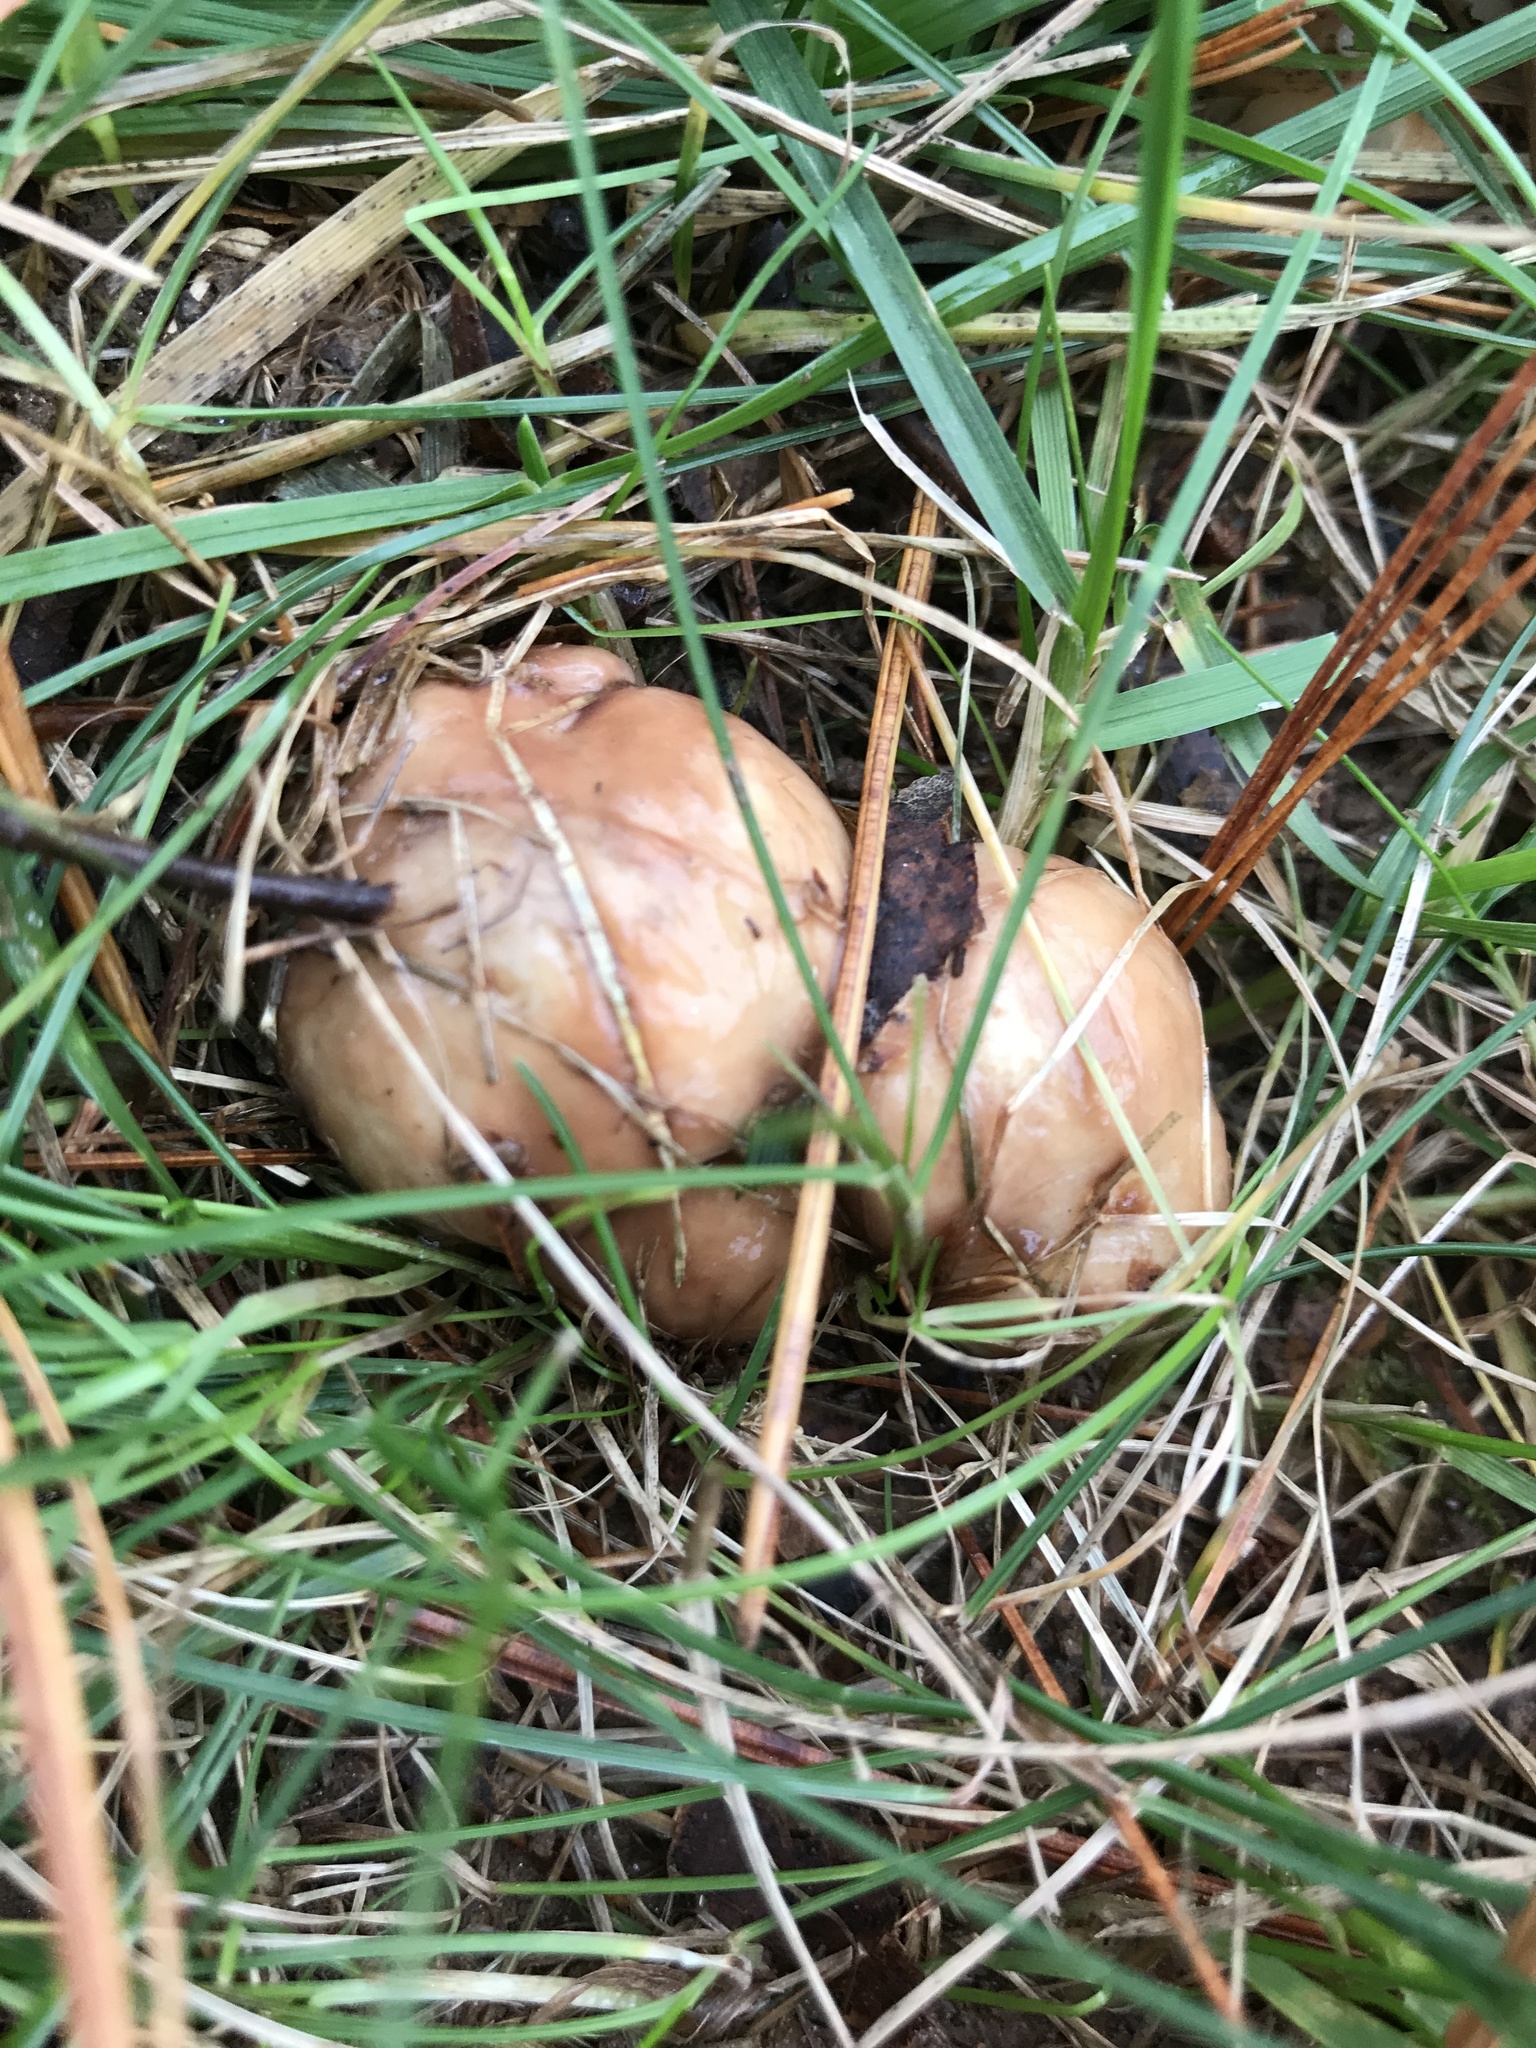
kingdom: Fungi
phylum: Basidiomycota
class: Agaricomycetes
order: Boletales
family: Suillaceae
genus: Fuscoboletinus
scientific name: Fuscoboletinus weaverae
